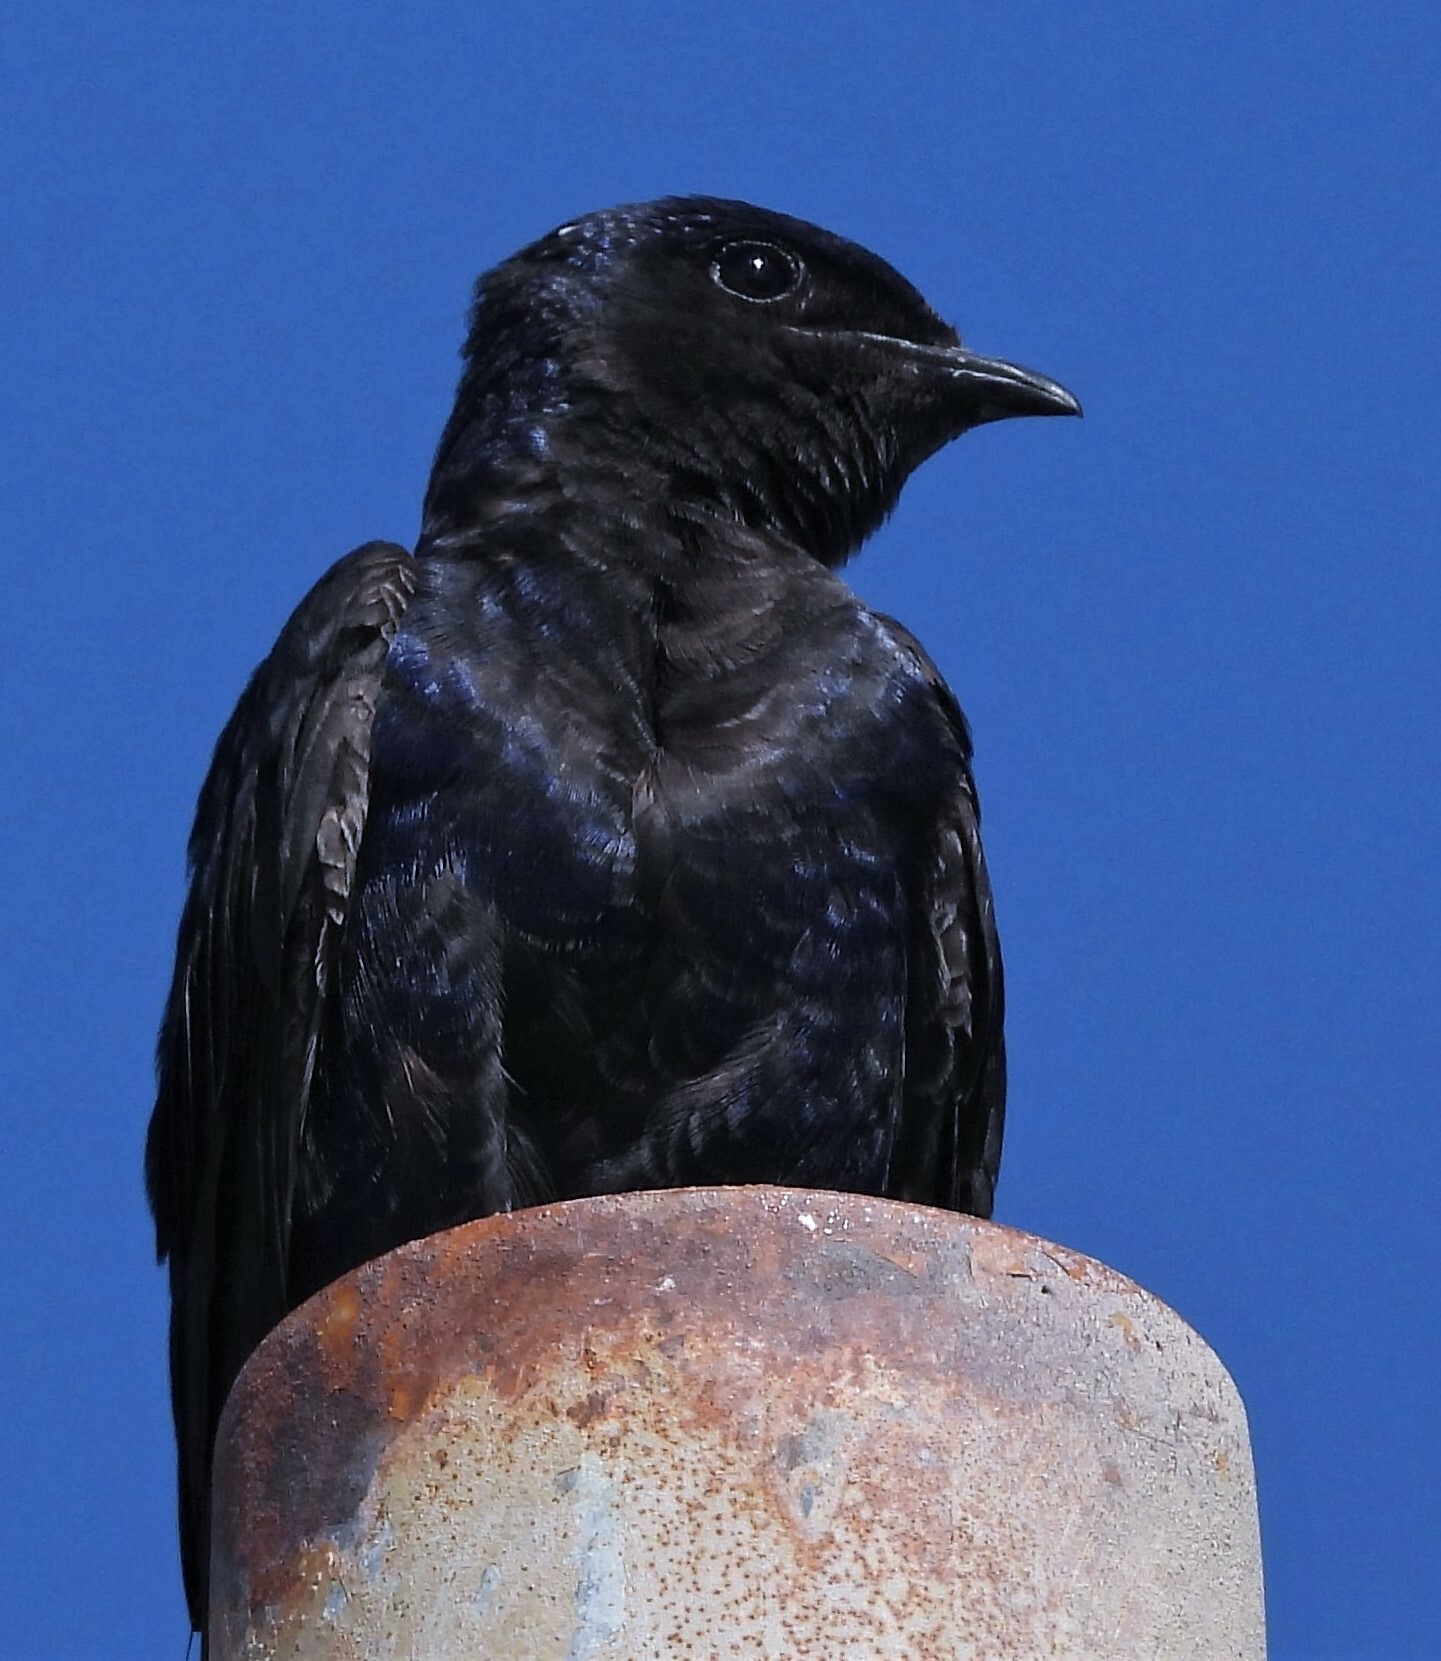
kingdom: Animalia
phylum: Chordata
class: Aves
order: Passeriformes
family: Hirundinidae
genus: Progne
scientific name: Progne elegans
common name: Southern martin
